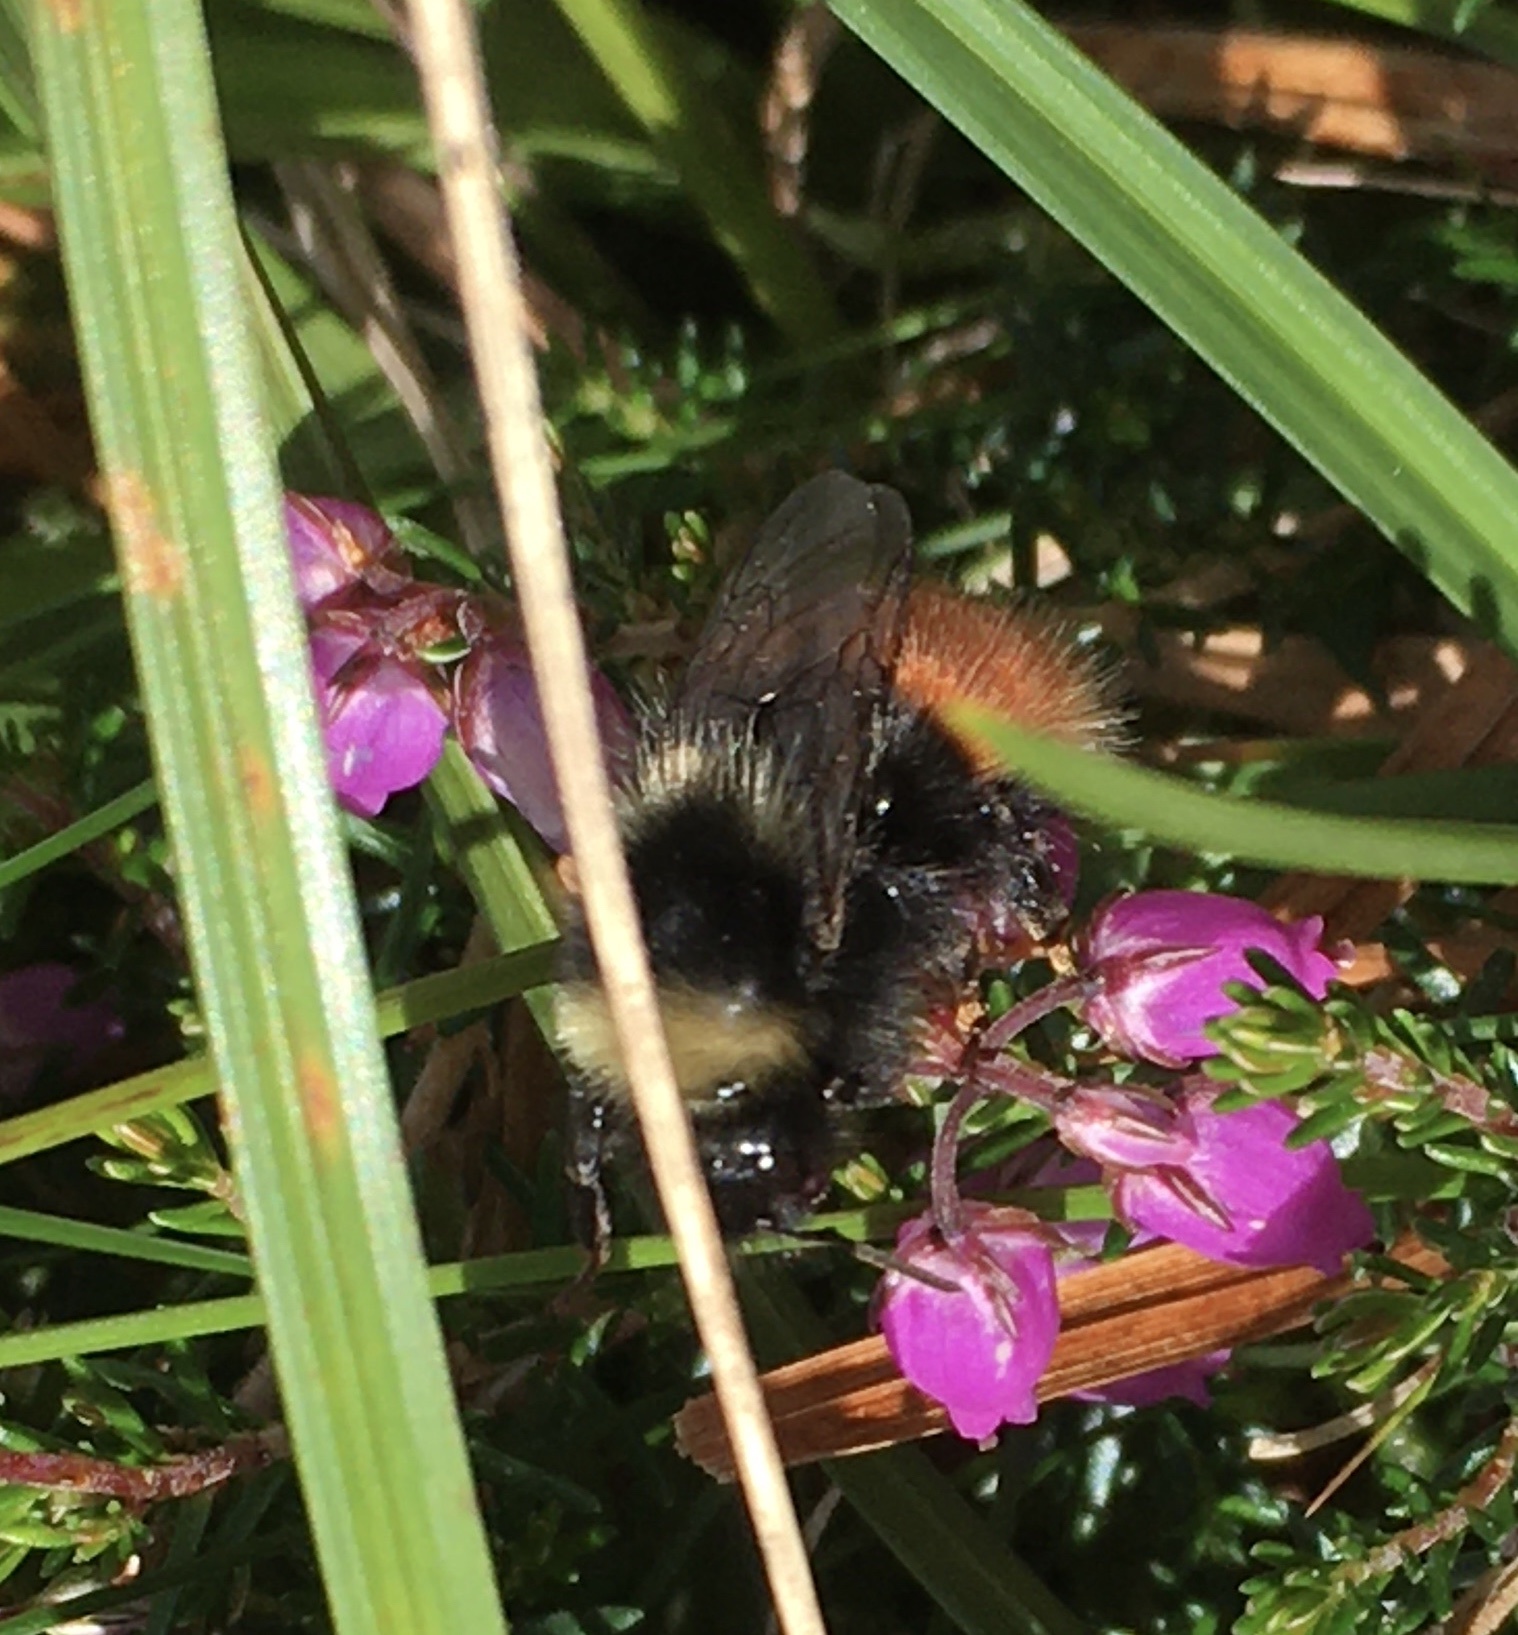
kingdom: Animalia
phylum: Arthropoda
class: Insecta
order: Hymenoptera
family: Apidae
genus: Bombus
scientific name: Bombus monticola
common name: Bilberry humble-bee
